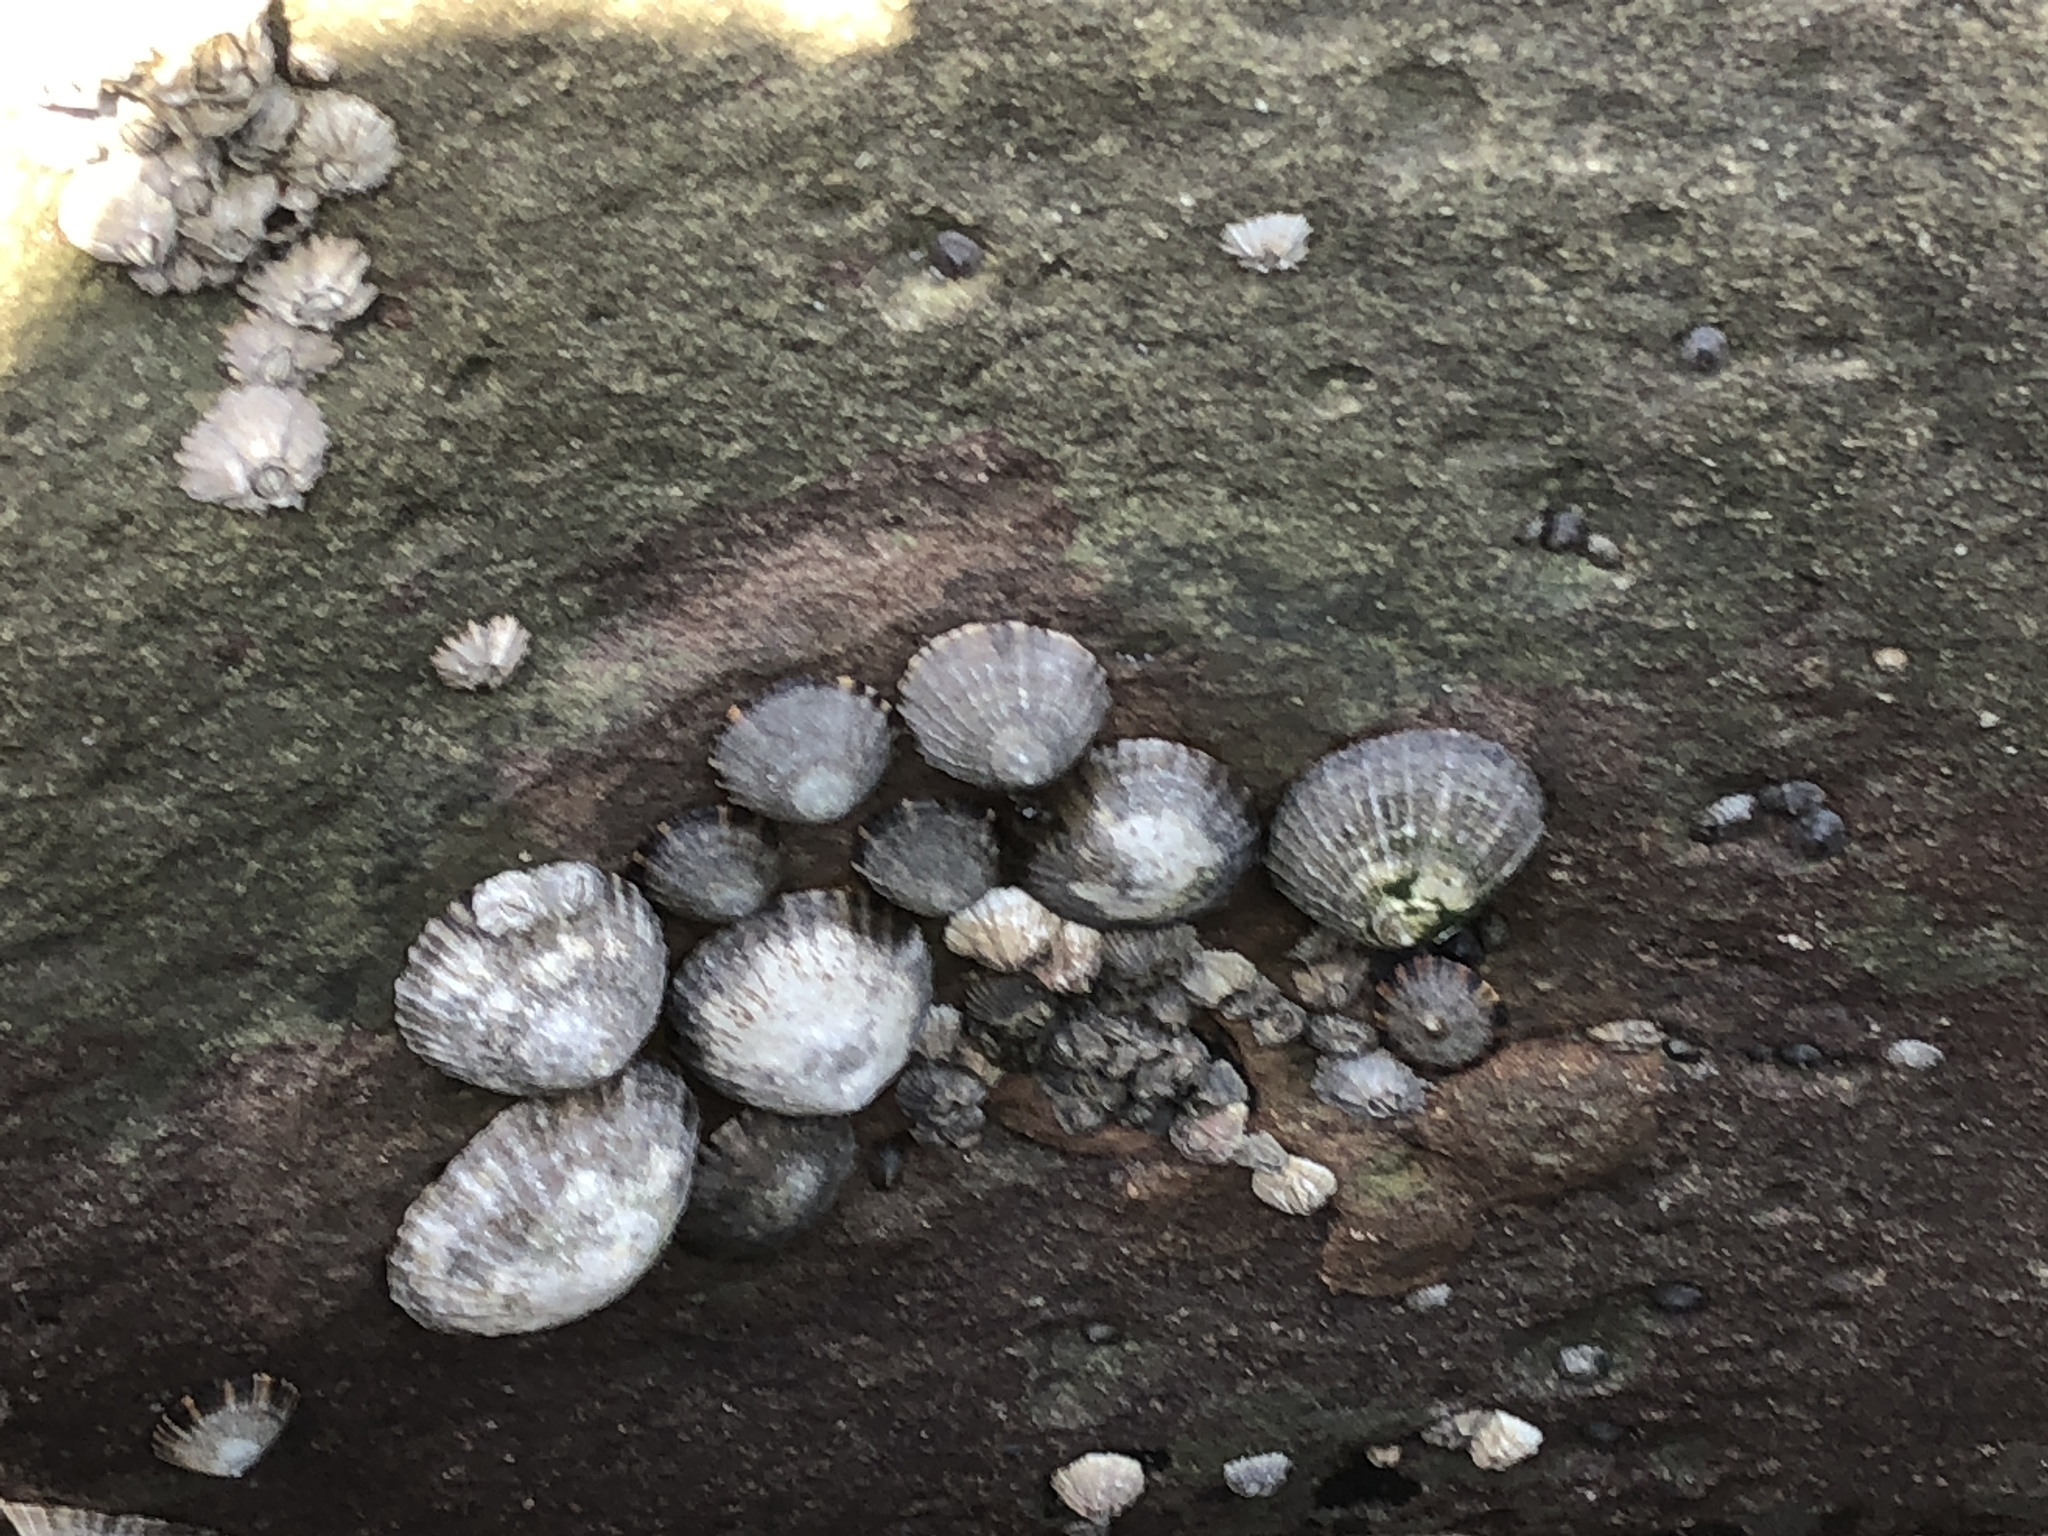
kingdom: Animalia
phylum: Mollusca
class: Gastropoda
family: Nacellidae
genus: Cellana
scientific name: Cellana tramoserica
